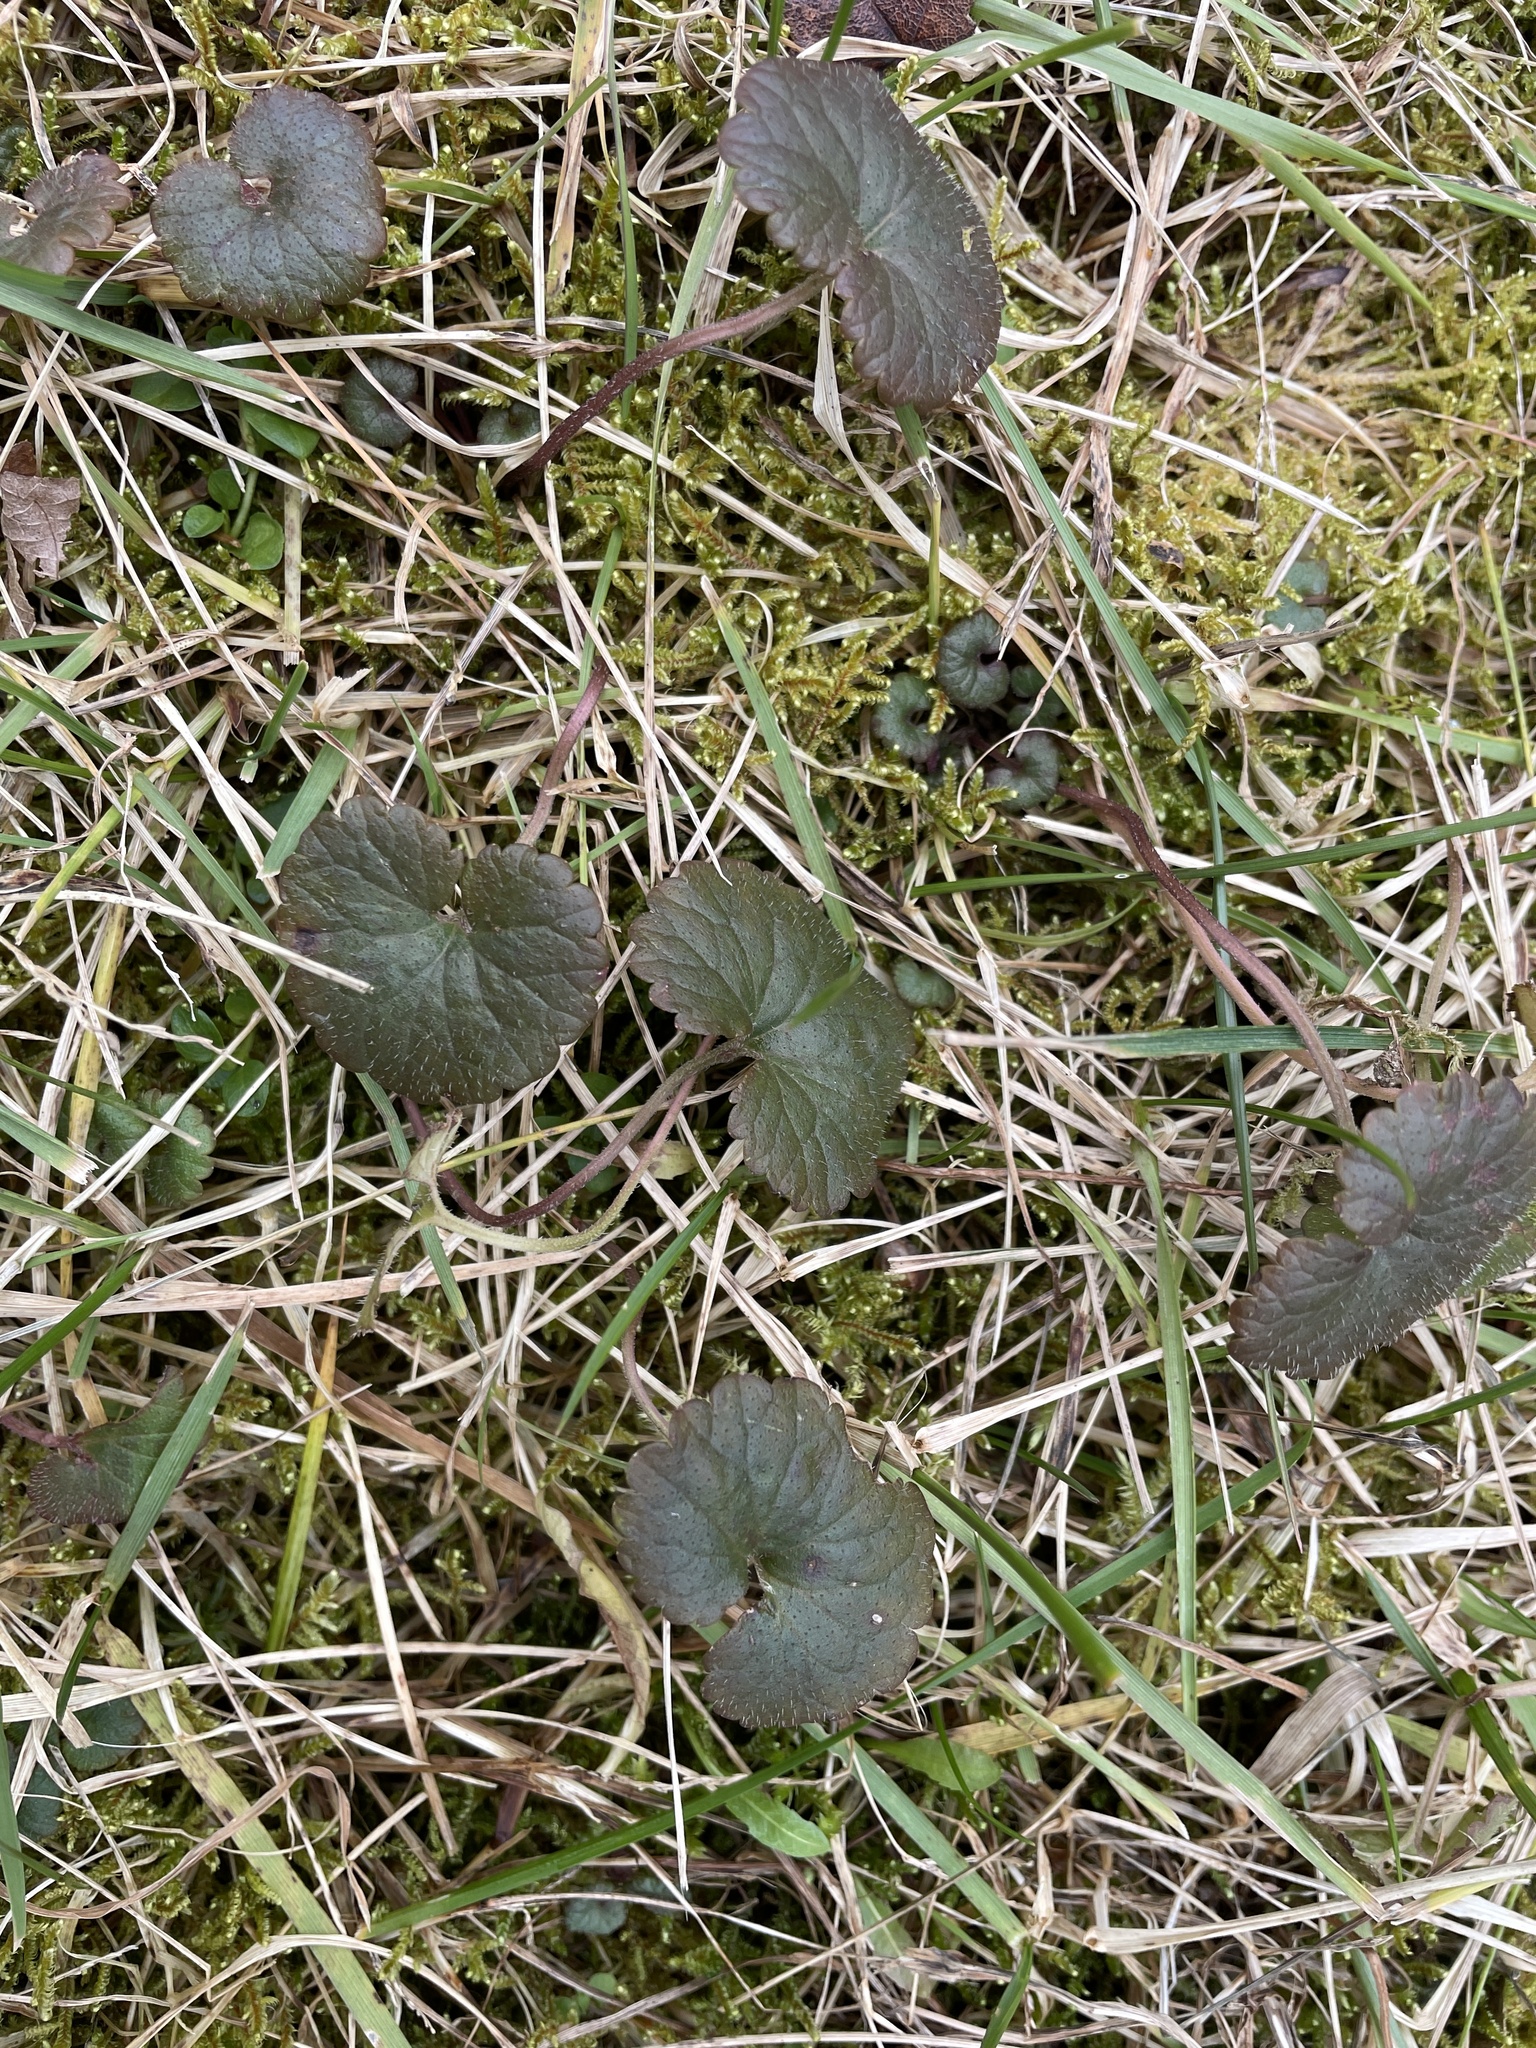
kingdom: Plantae
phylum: Tracheophyta
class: Magnoliopsida
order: Lamiales
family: Lamiaceae
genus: Glechoma
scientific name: Glechoma hederacea
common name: Ground ivy
